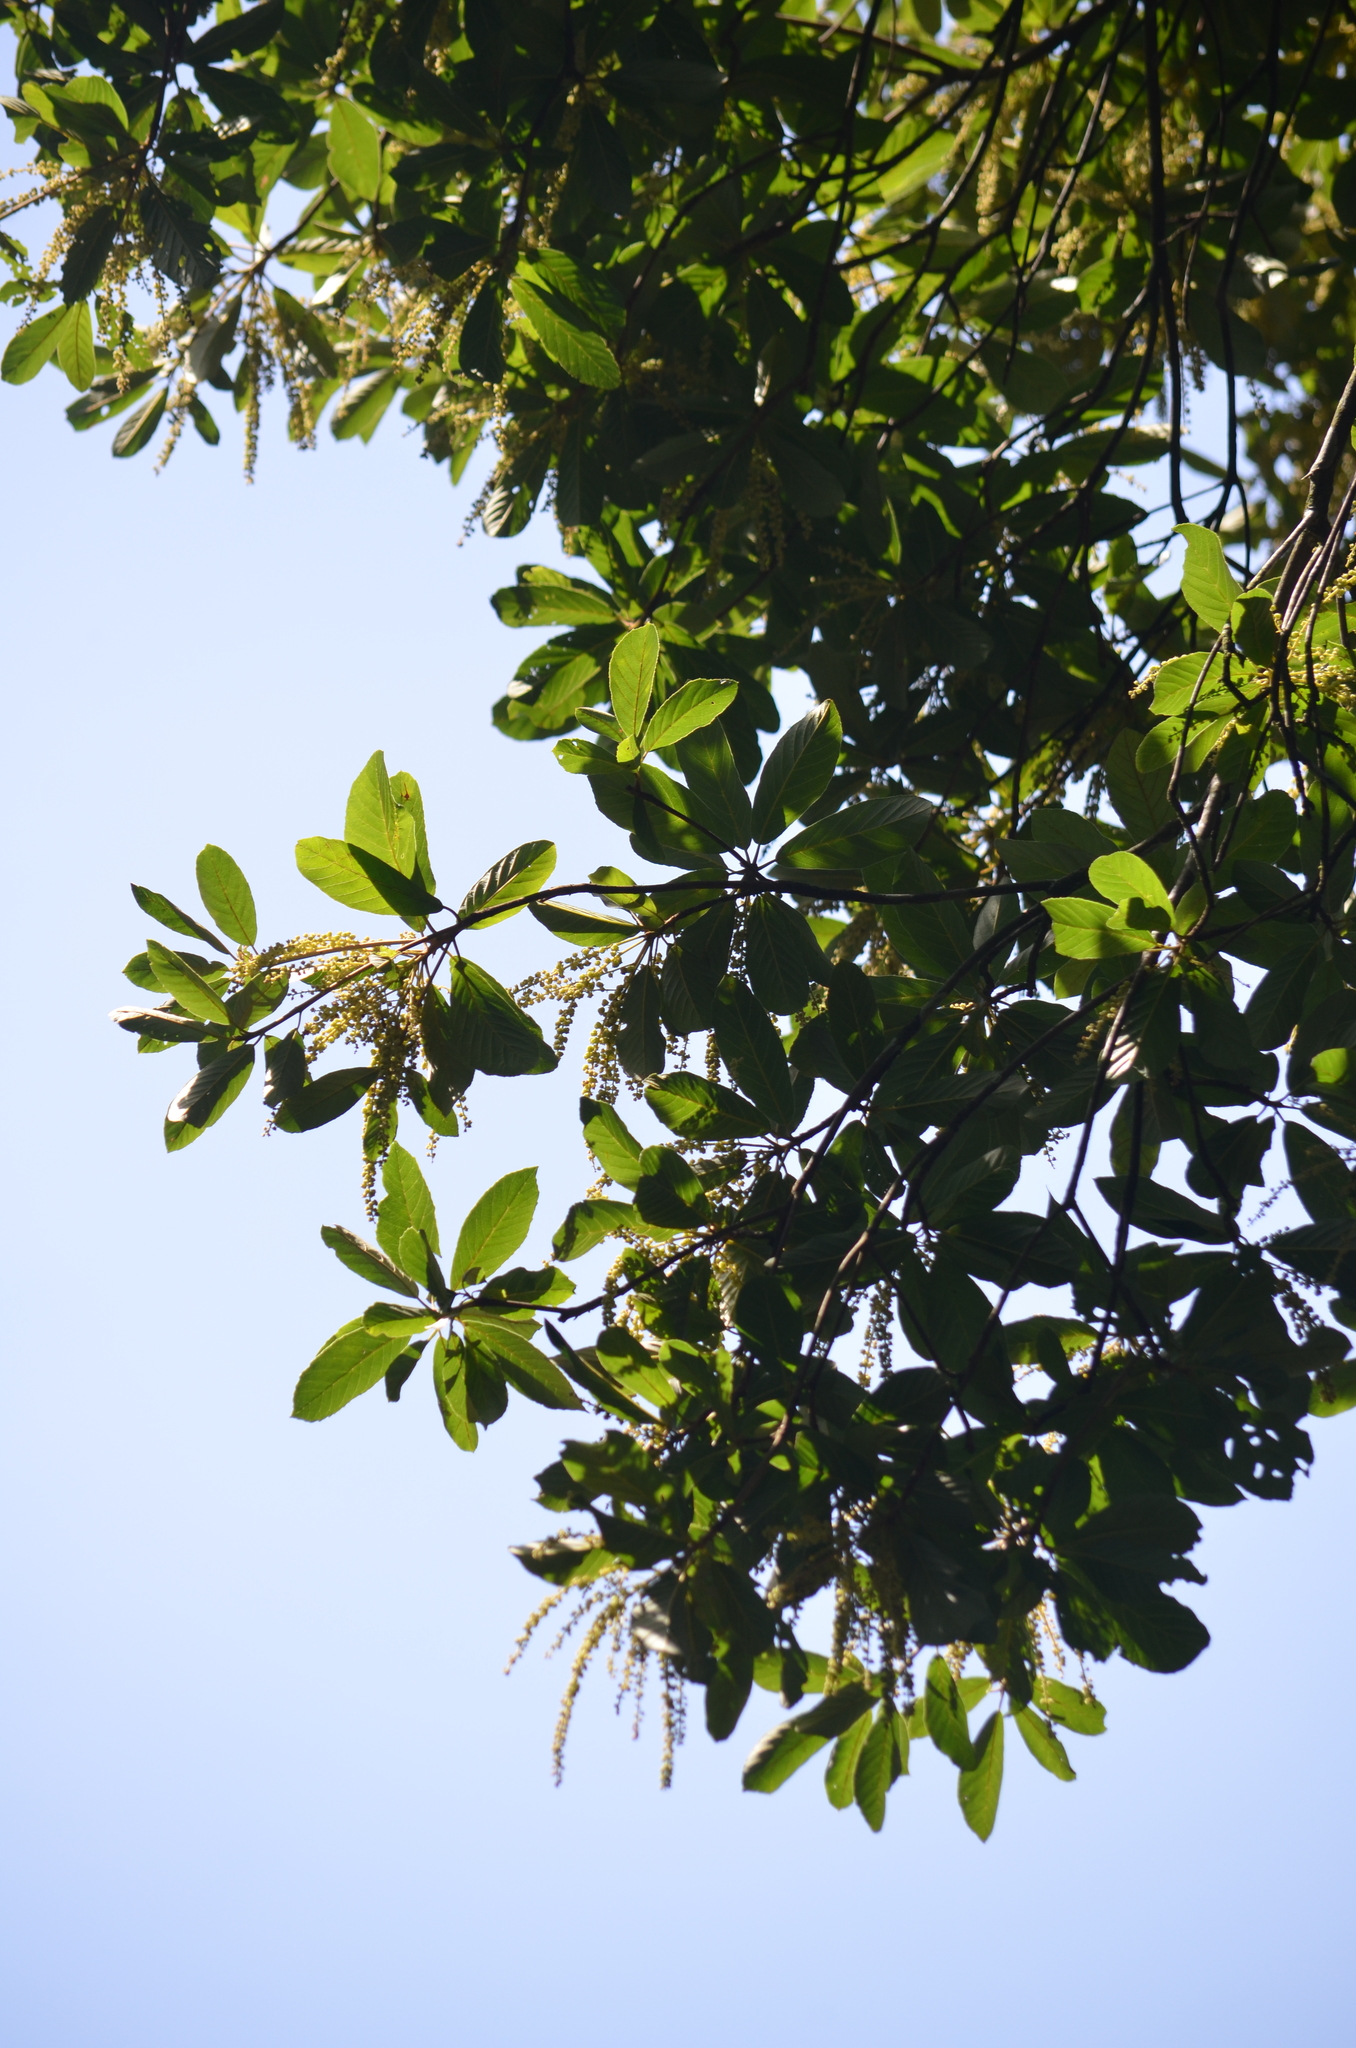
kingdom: Plantae
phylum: Tracheophyta
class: Magnoliopsida
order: Ericales
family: Clethraceae
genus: Clethra
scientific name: Clethra scabra
